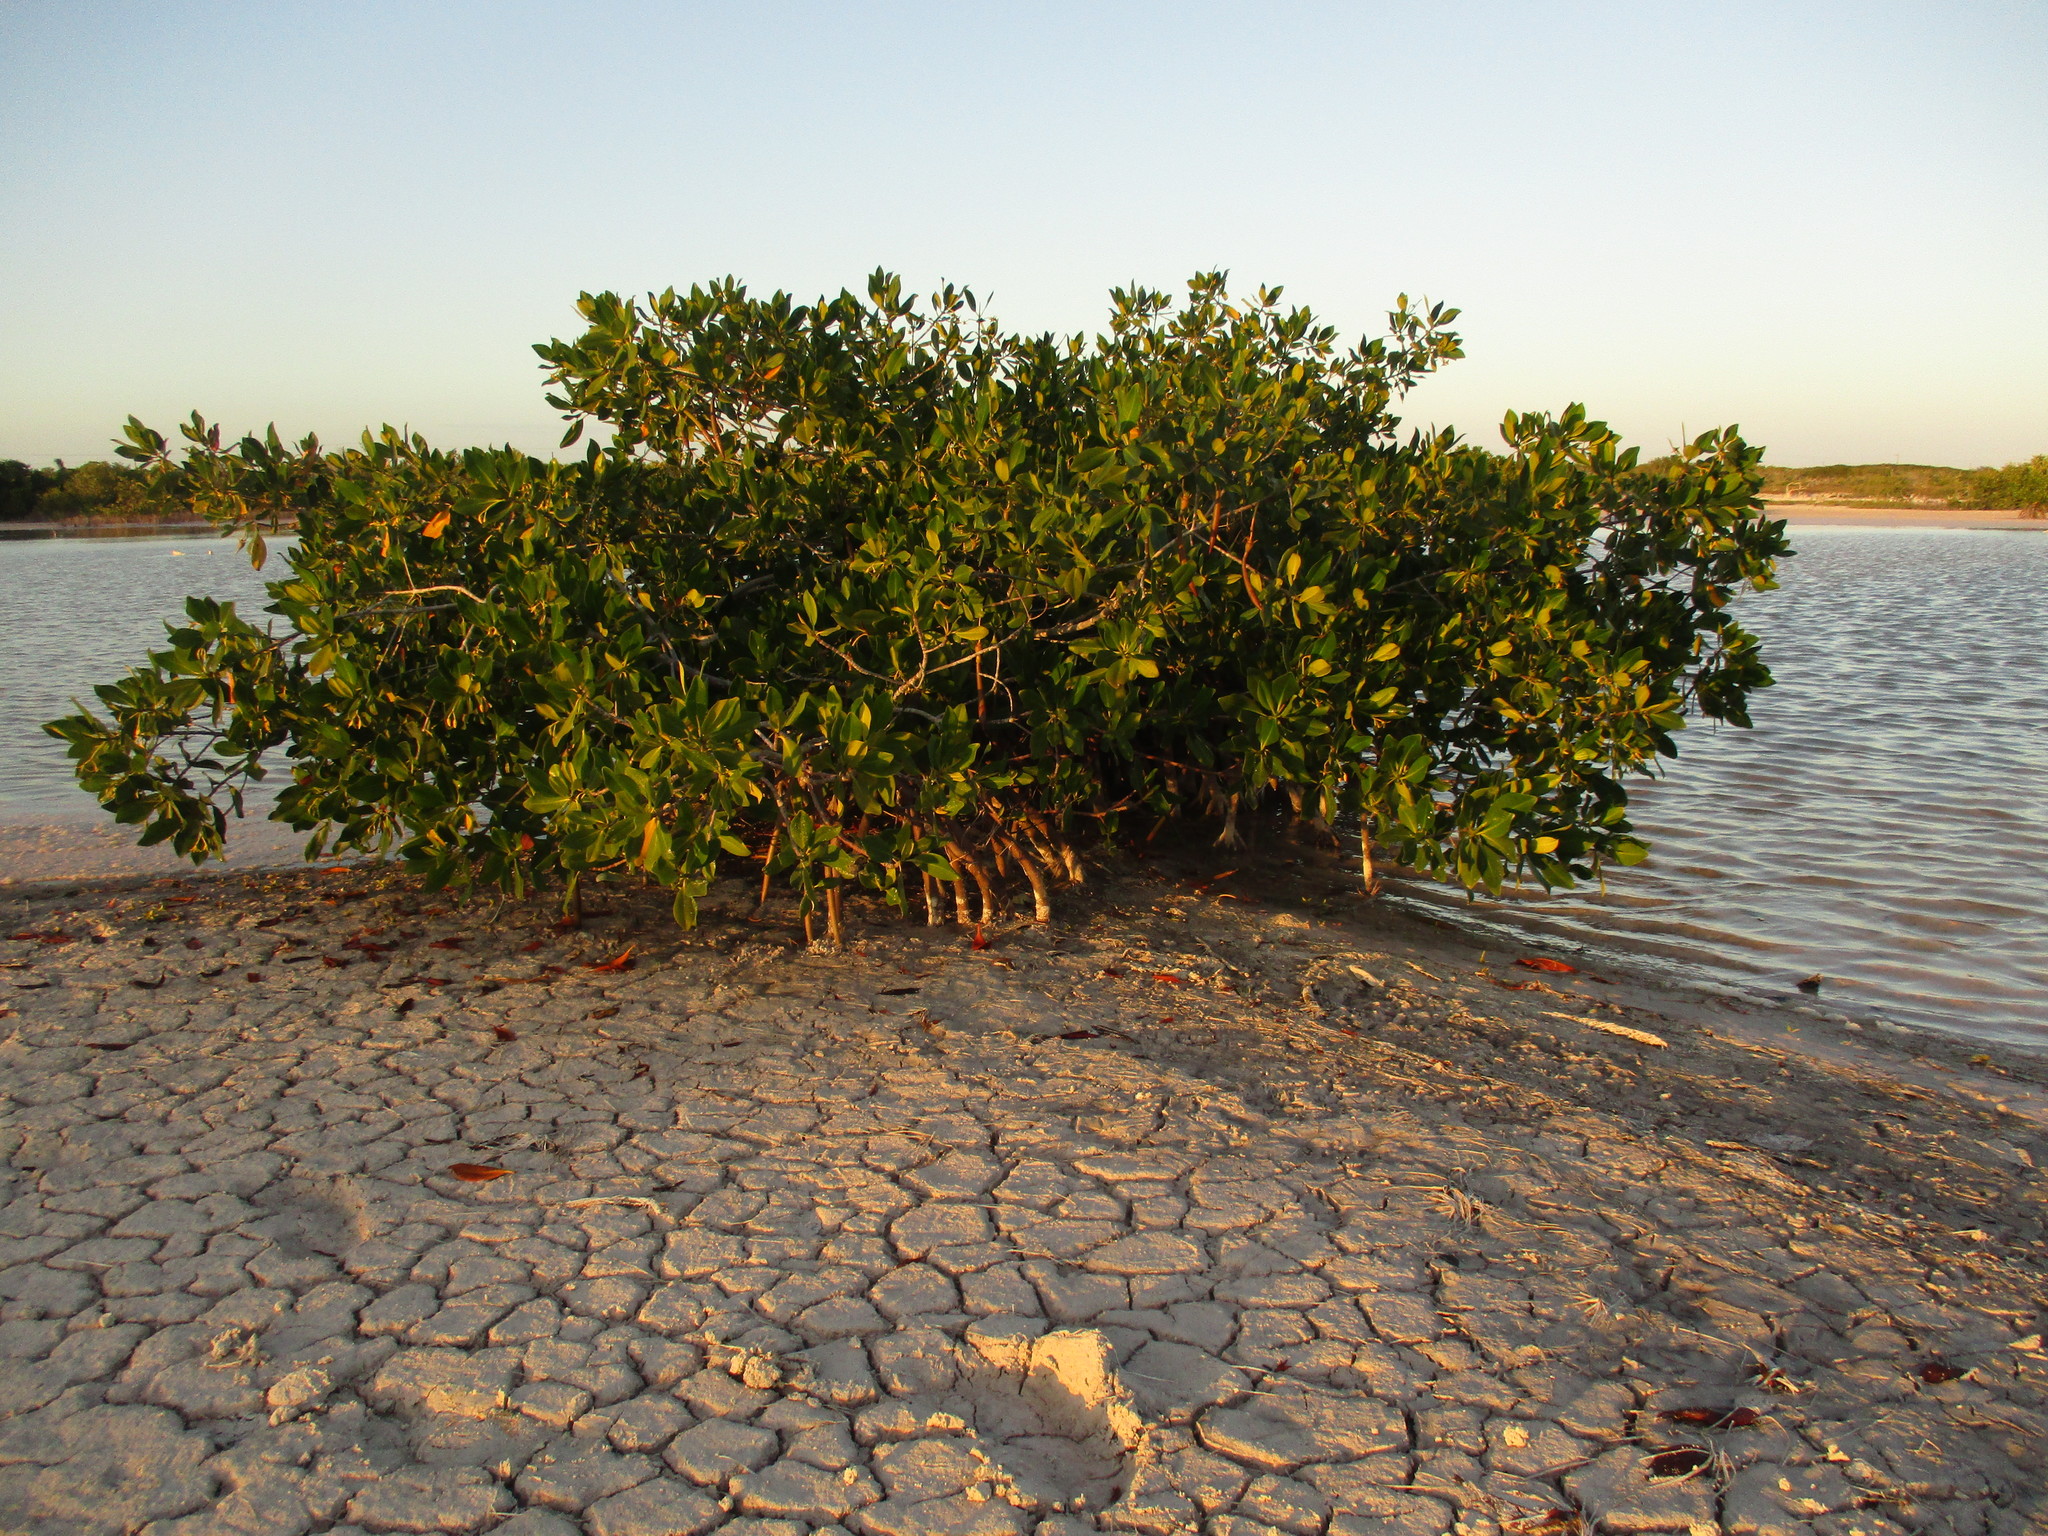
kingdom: Plantae
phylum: Tracheophyta
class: Magnoliopsida
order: Malpighiales
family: Rhizophoraceae
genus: Rhizophora
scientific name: Rhizophora mangle
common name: Red mangrove
